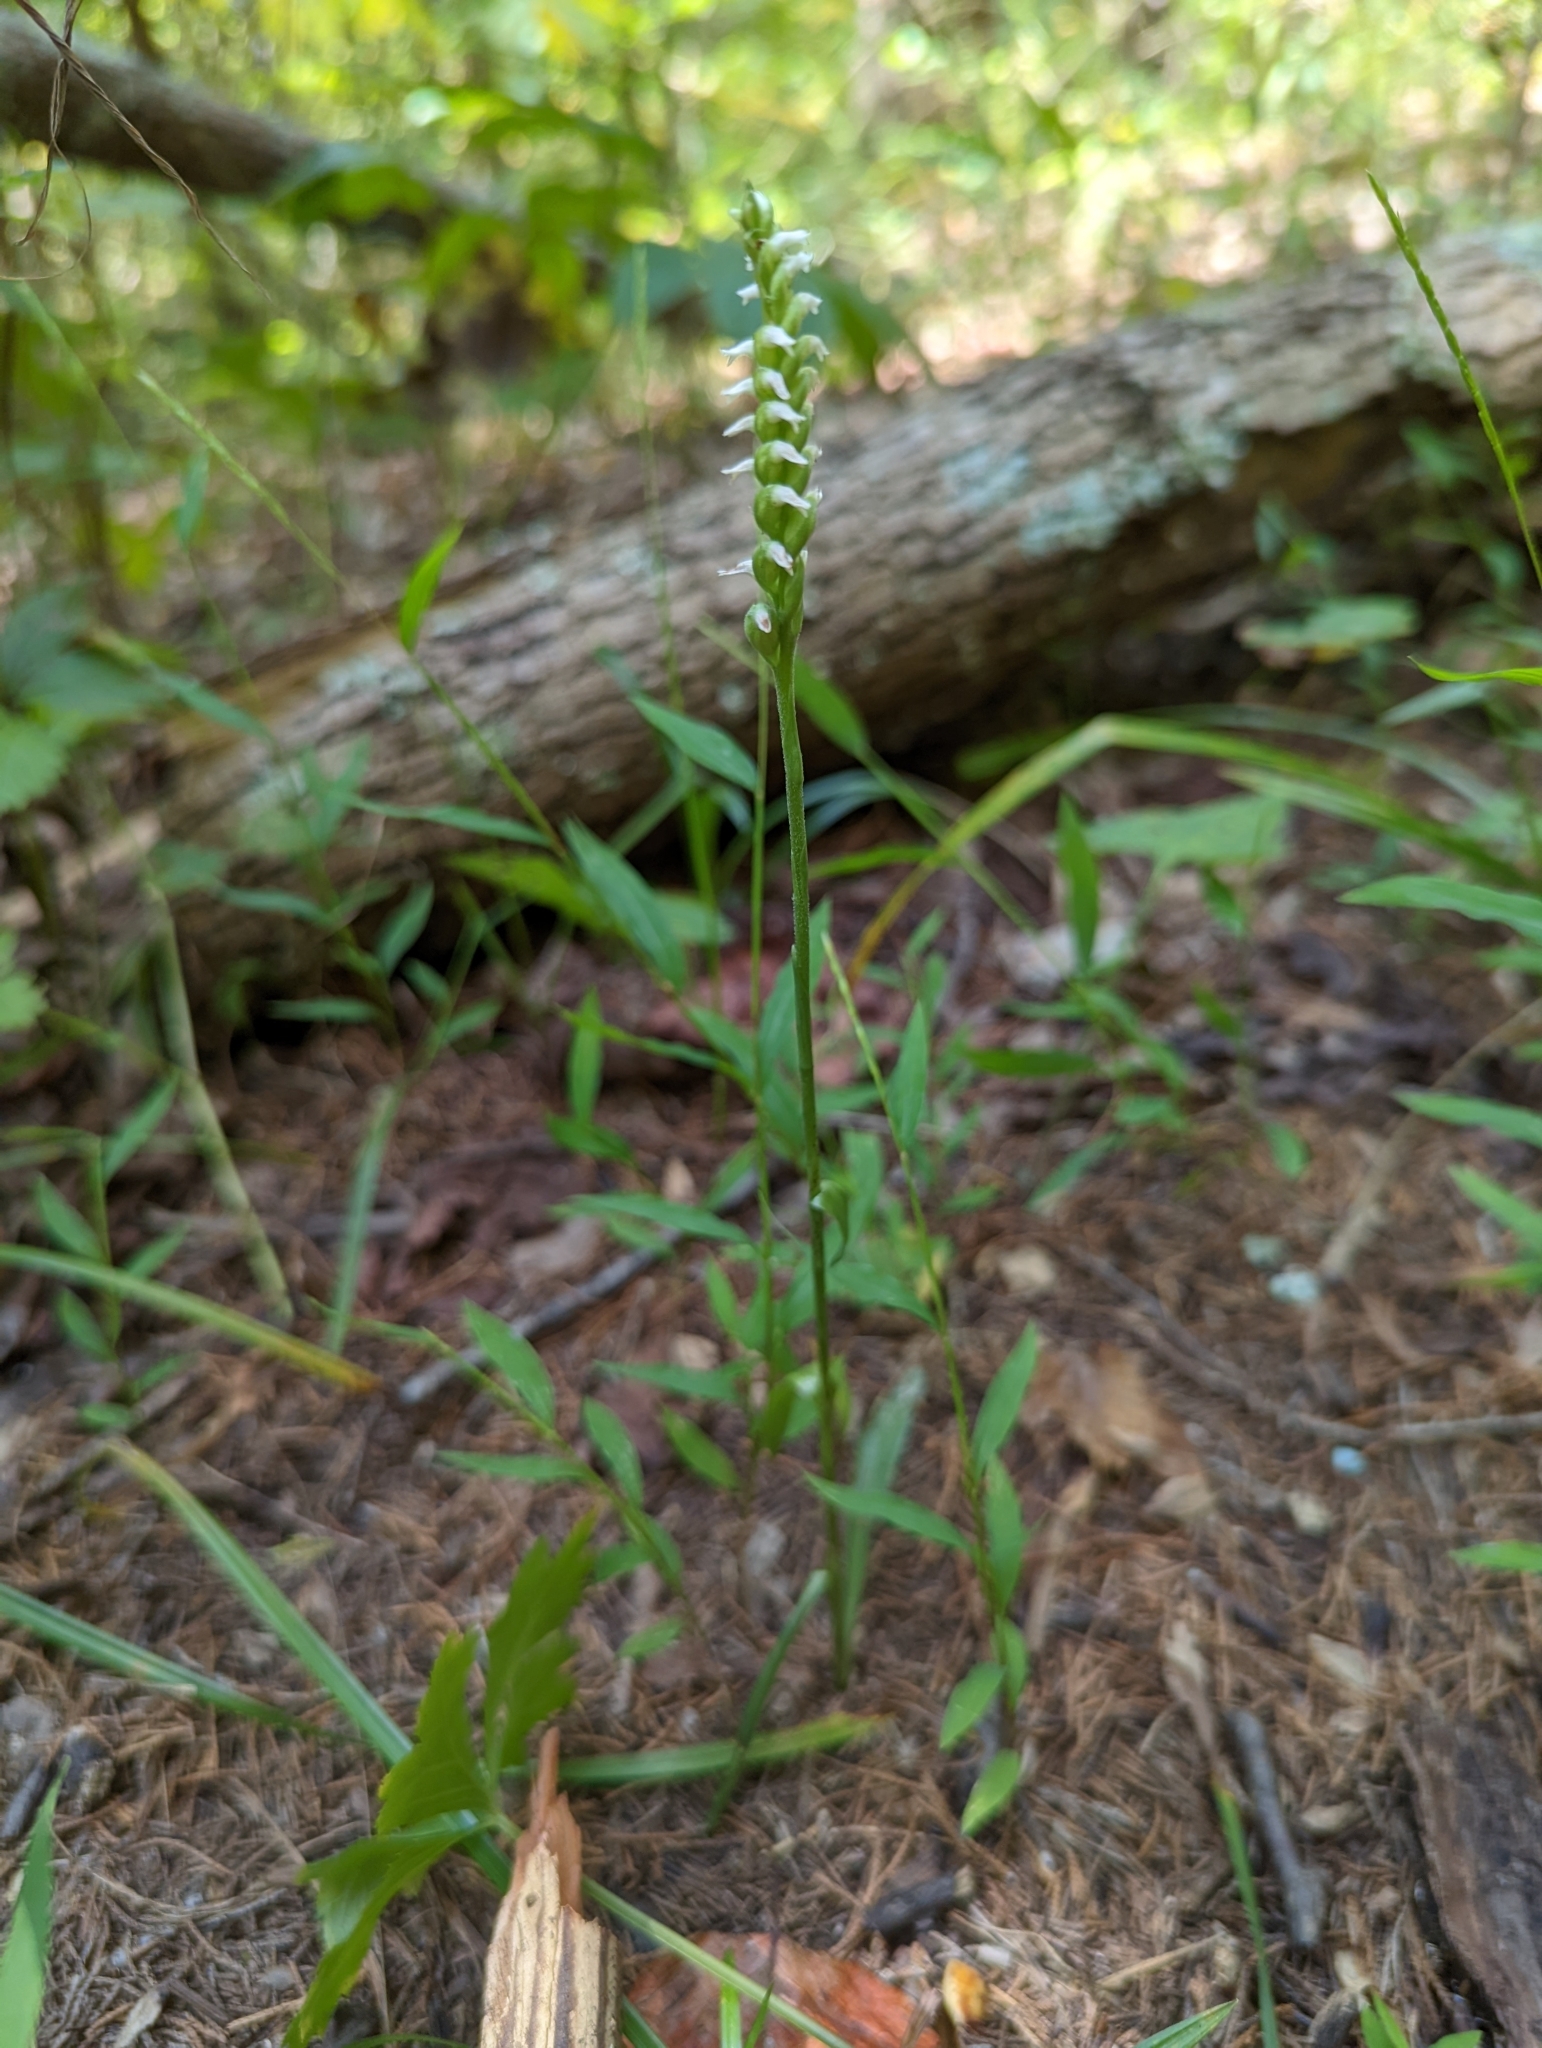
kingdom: Plantae
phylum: Tracheophyta
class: Liliopsida
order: Asparagales
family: Orchidaceae
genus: Spiranthes
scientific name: Spiranthes ovalis
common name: October ladies'-tresses
